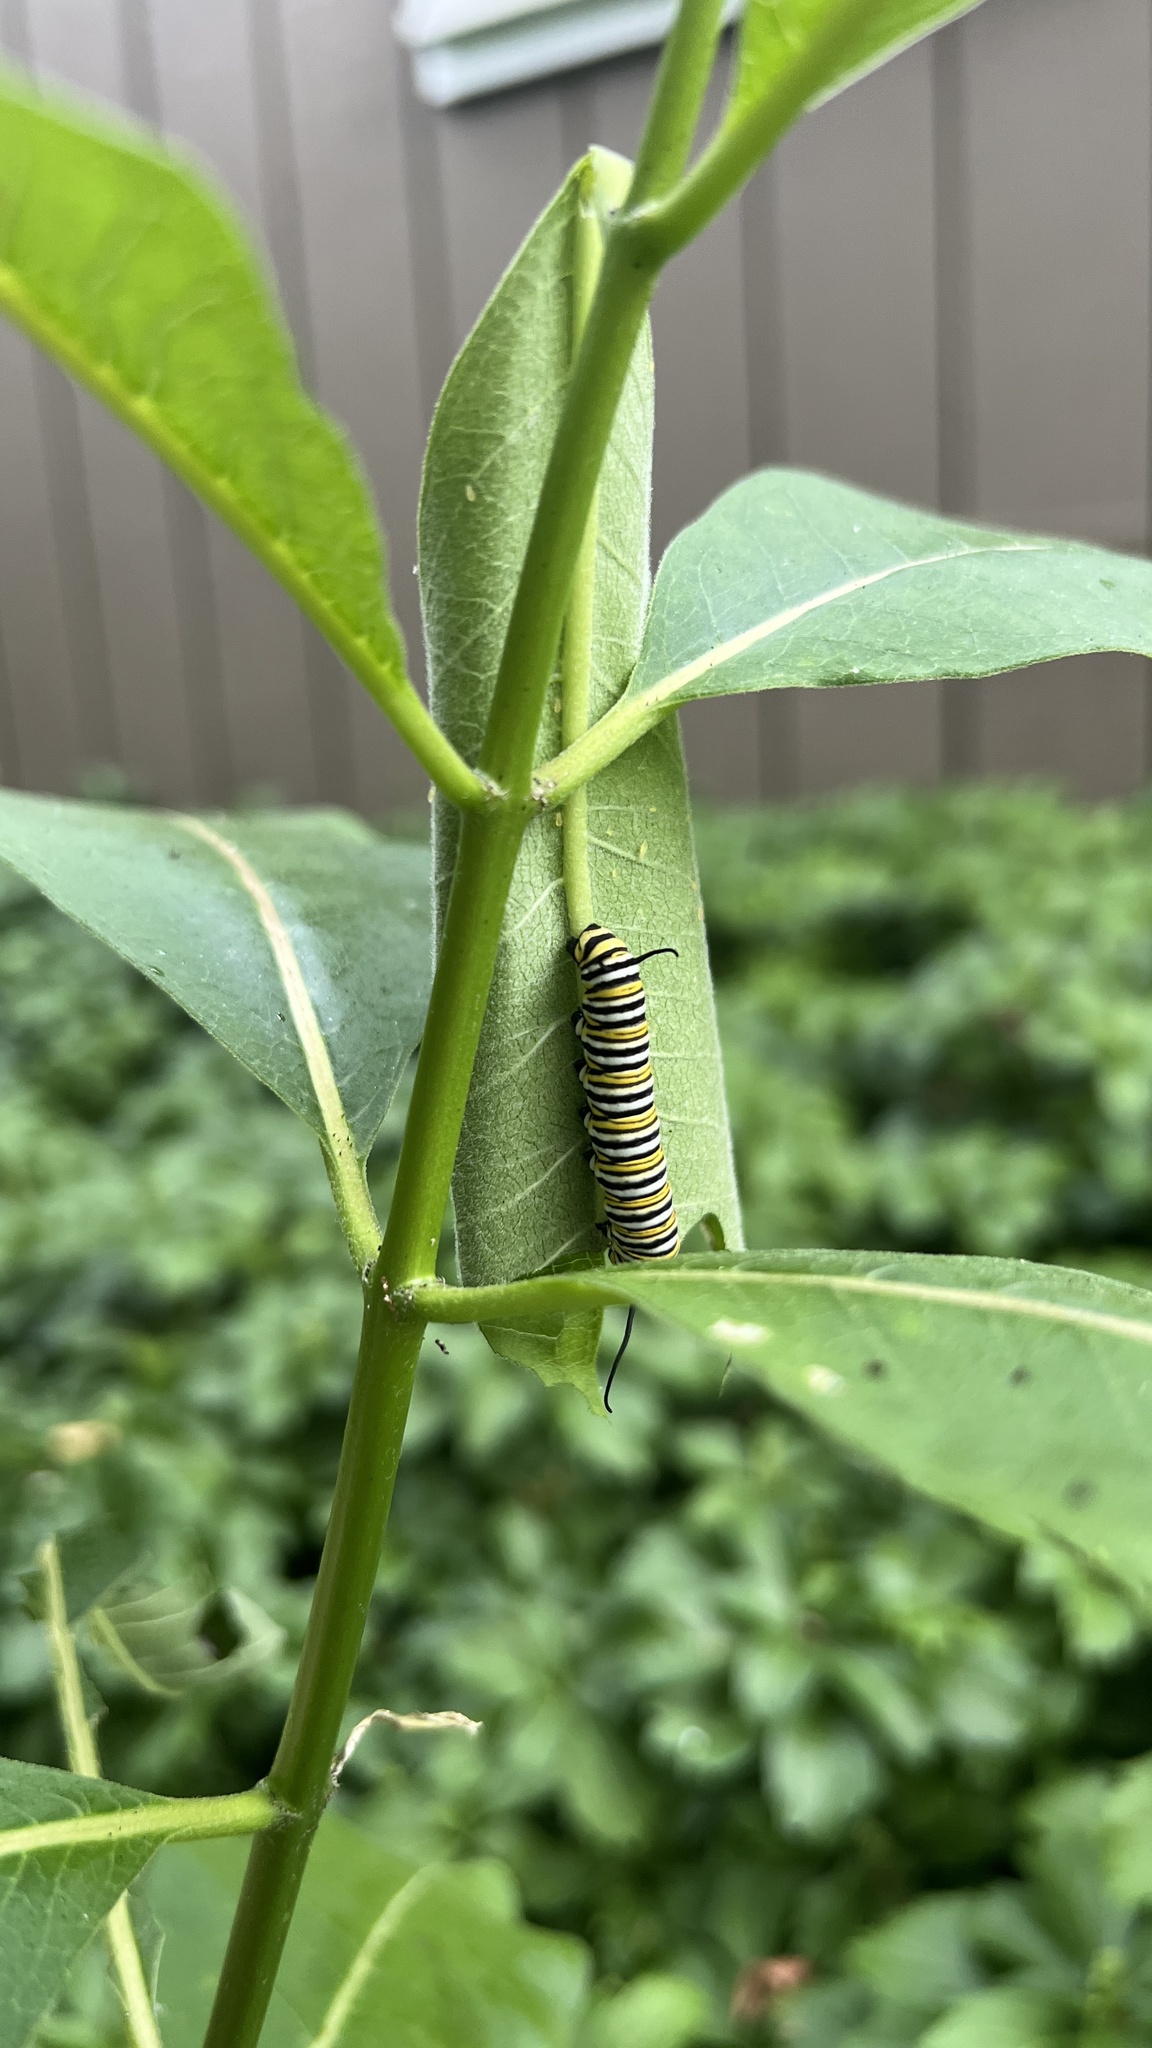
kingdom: Animalia
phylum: Arthropoda
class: Insecta
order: Lepidoptera
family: Nymphalidae
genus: Danaus
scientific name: Danaus plexippus
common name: Monarch
